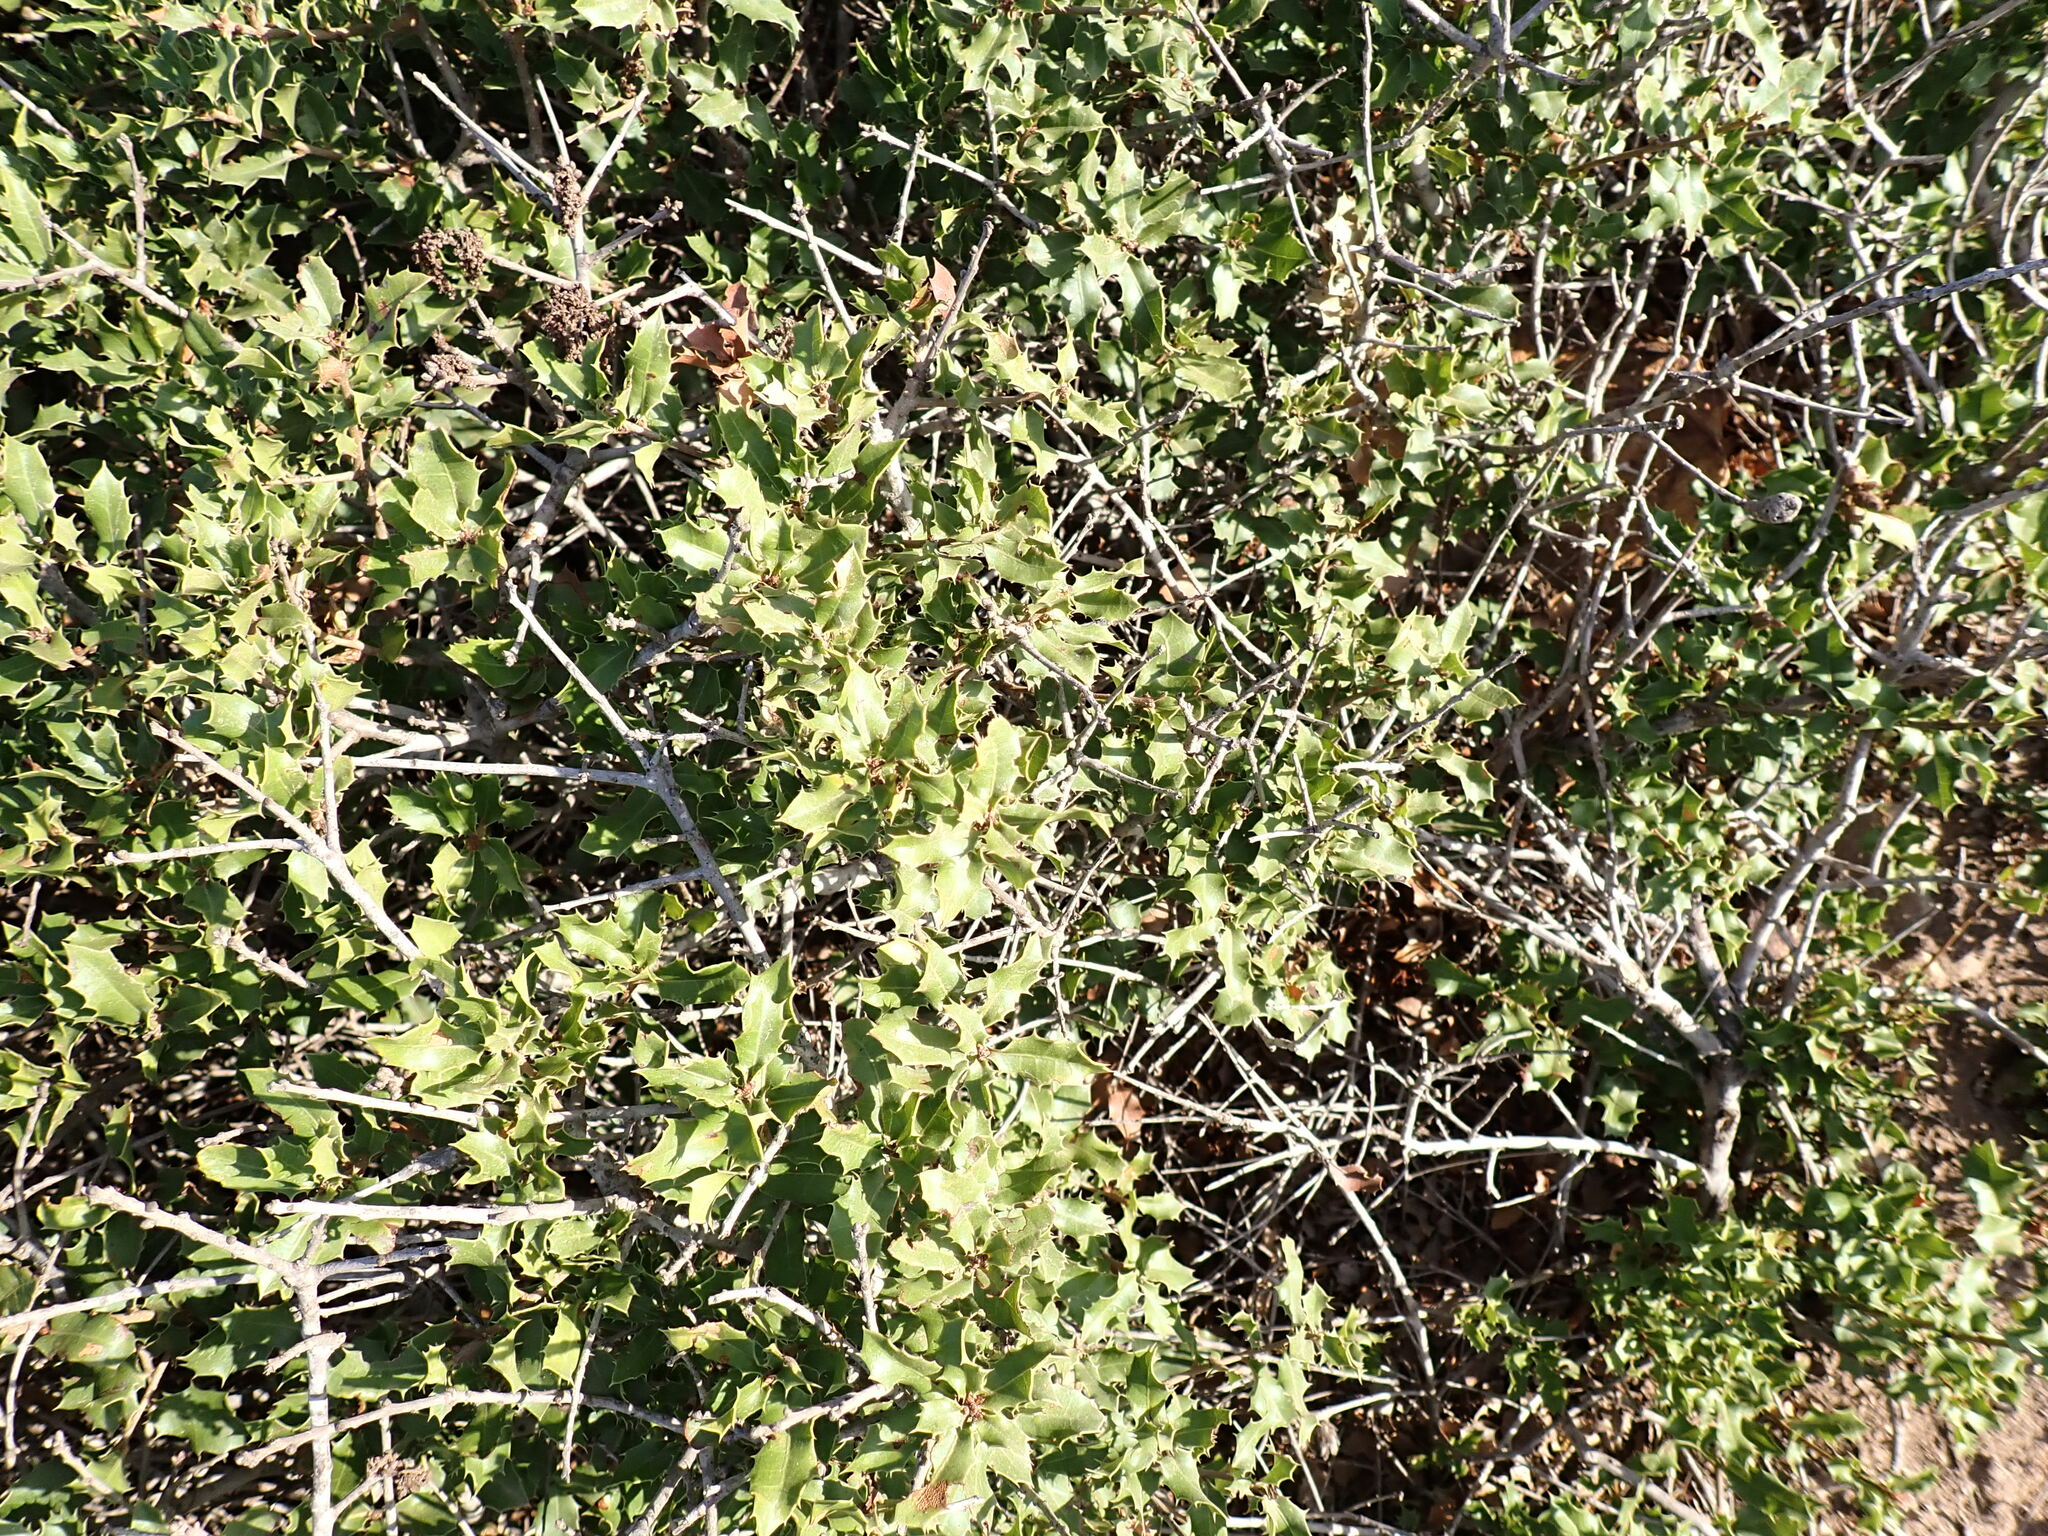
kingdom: Plantae
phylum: Tracheophyta
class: Magnoliopsida
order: Fagales
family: Fagaceae
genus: Quercus
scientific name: Quercus coccifera
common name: Kermes oak
